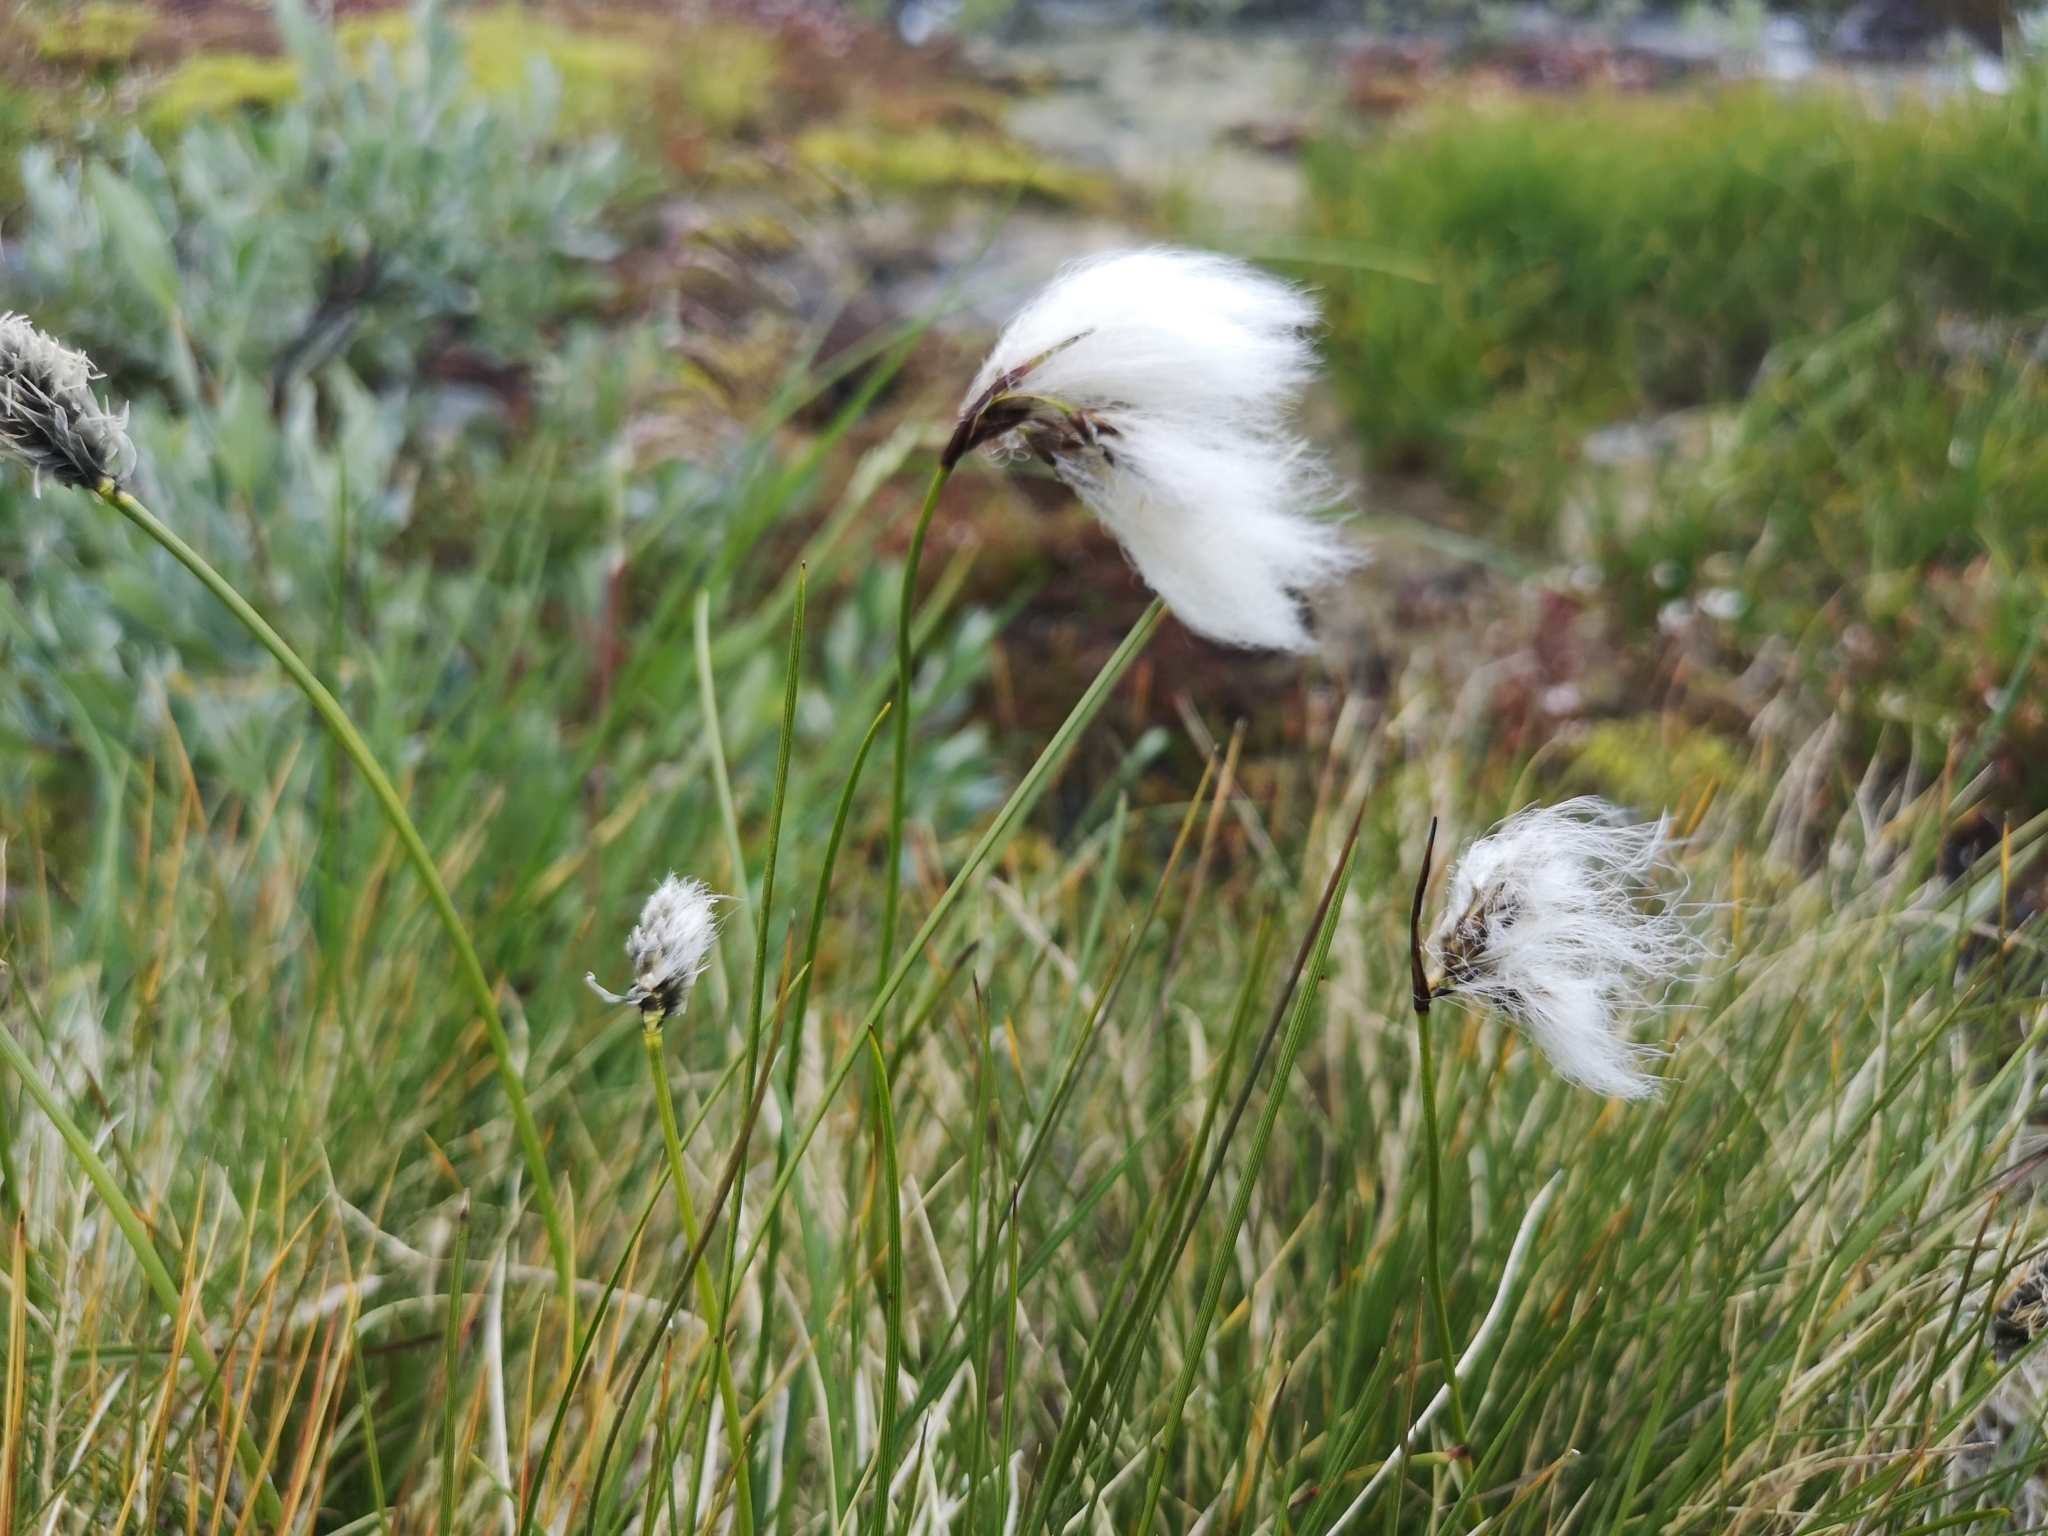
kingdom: Plantae
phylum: Tracheophyta
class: Liliopsida
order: Poales
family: Cyperaceae
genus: Eriophorum
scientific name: Eriophorum angustifolium
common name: Common cottongrass
